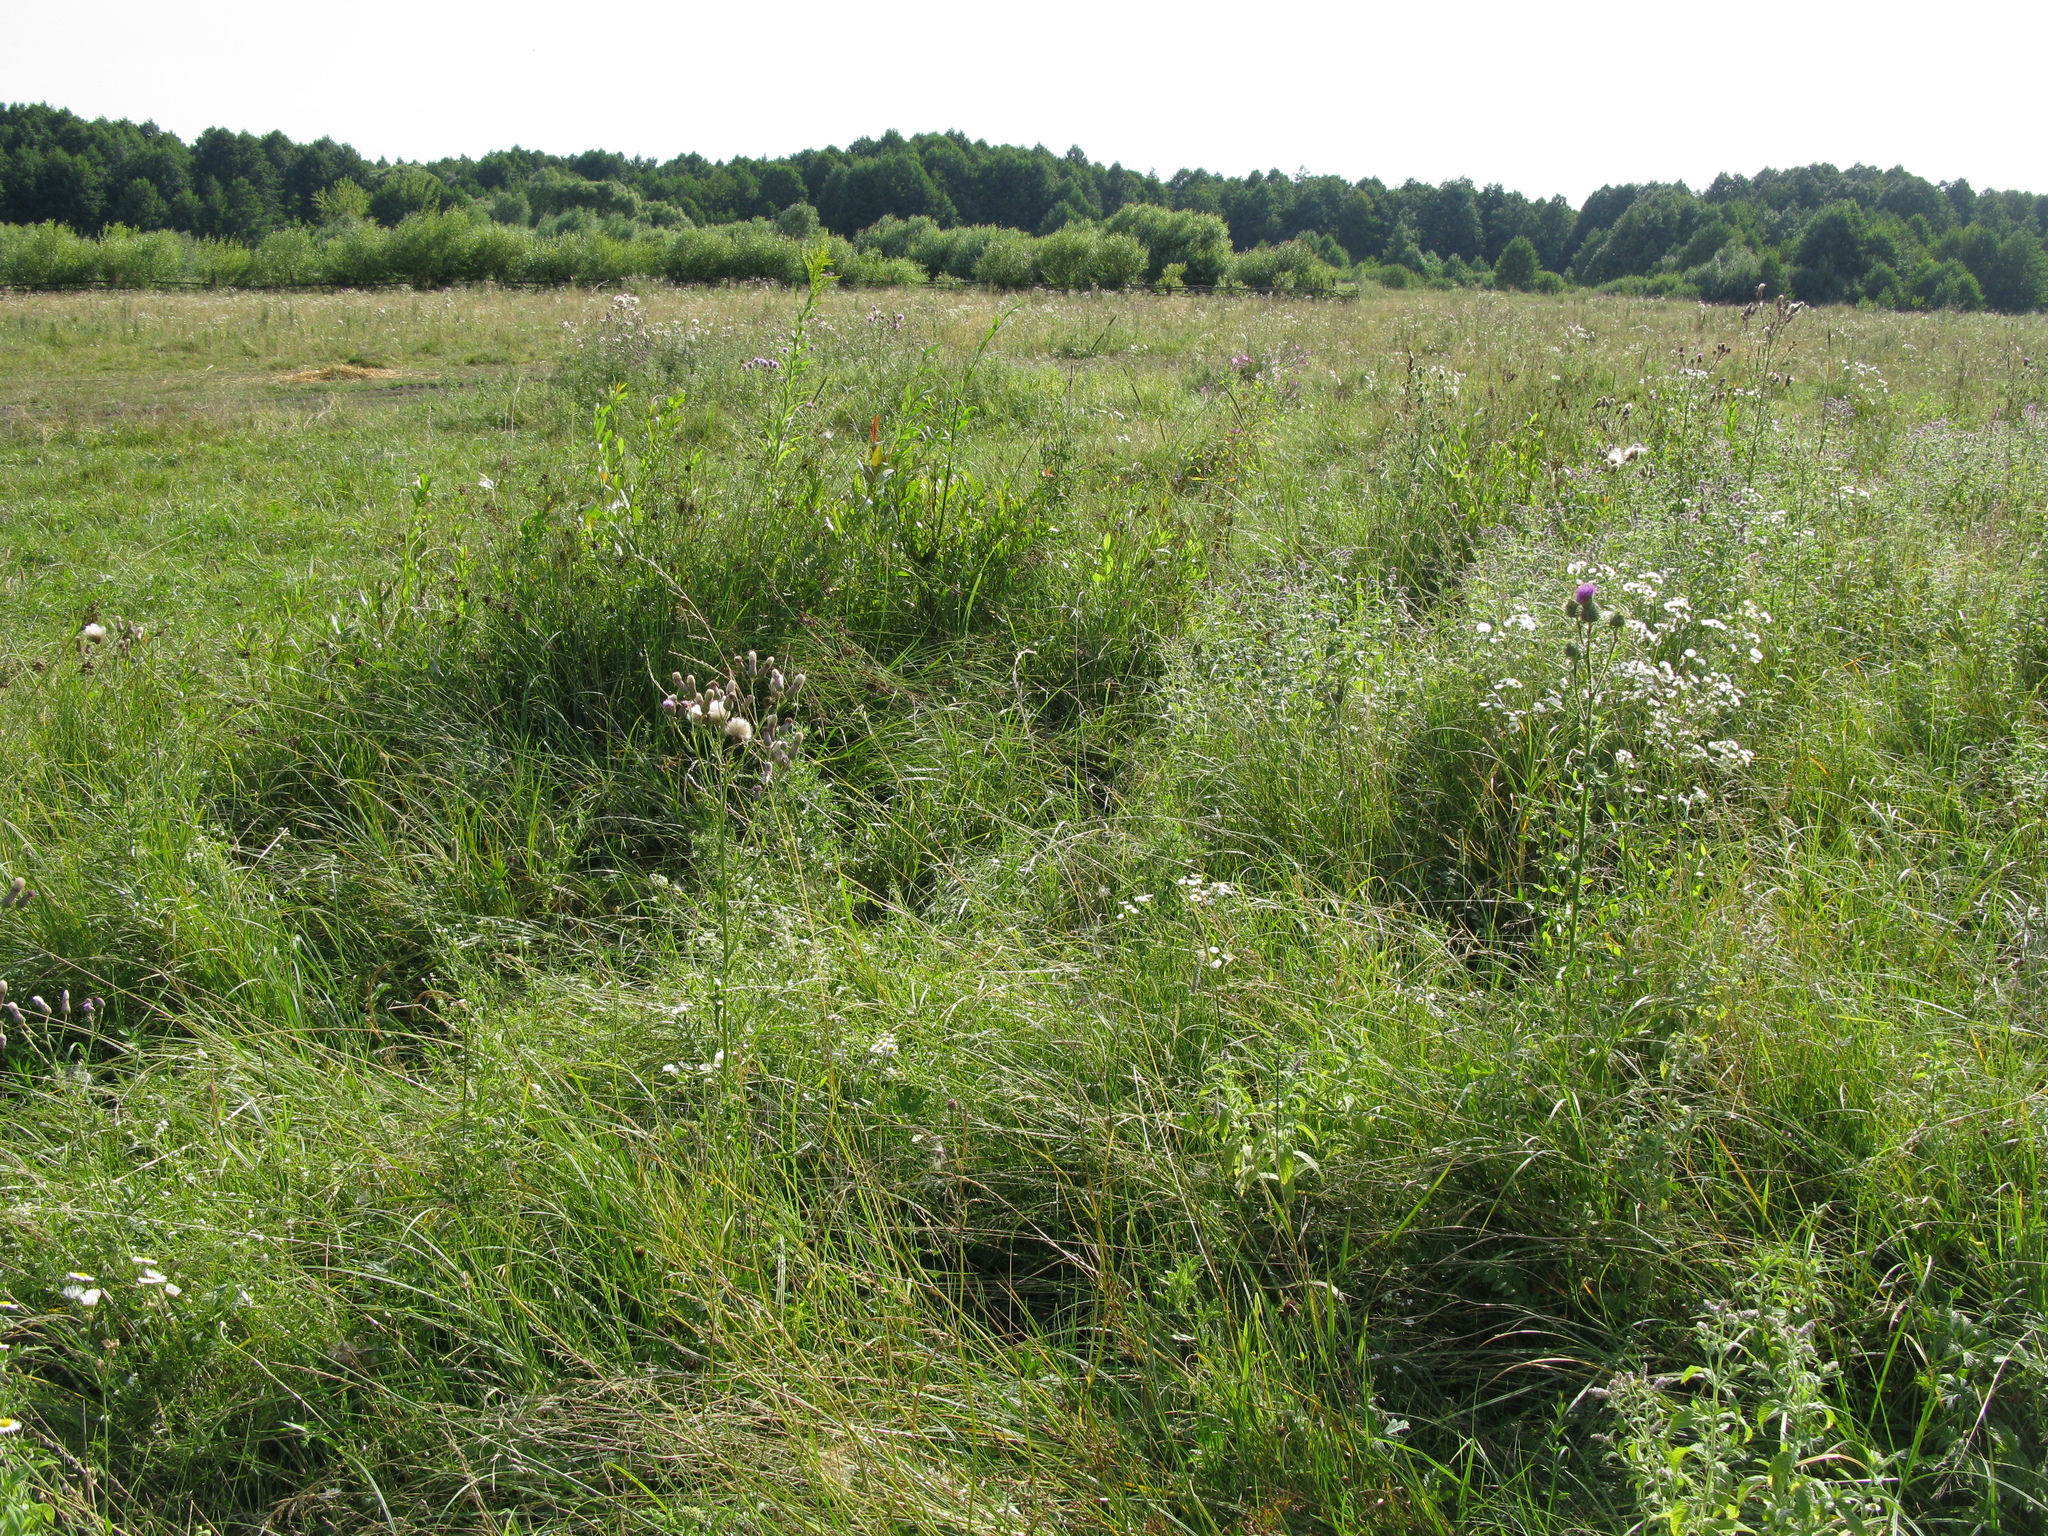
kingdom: Plantae
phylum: Tracheophyta
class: Magnoliopsida
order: Asterales
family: Asteraceae
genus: Cirsium
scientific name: Cirsium vulgare
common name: Bull thistle
